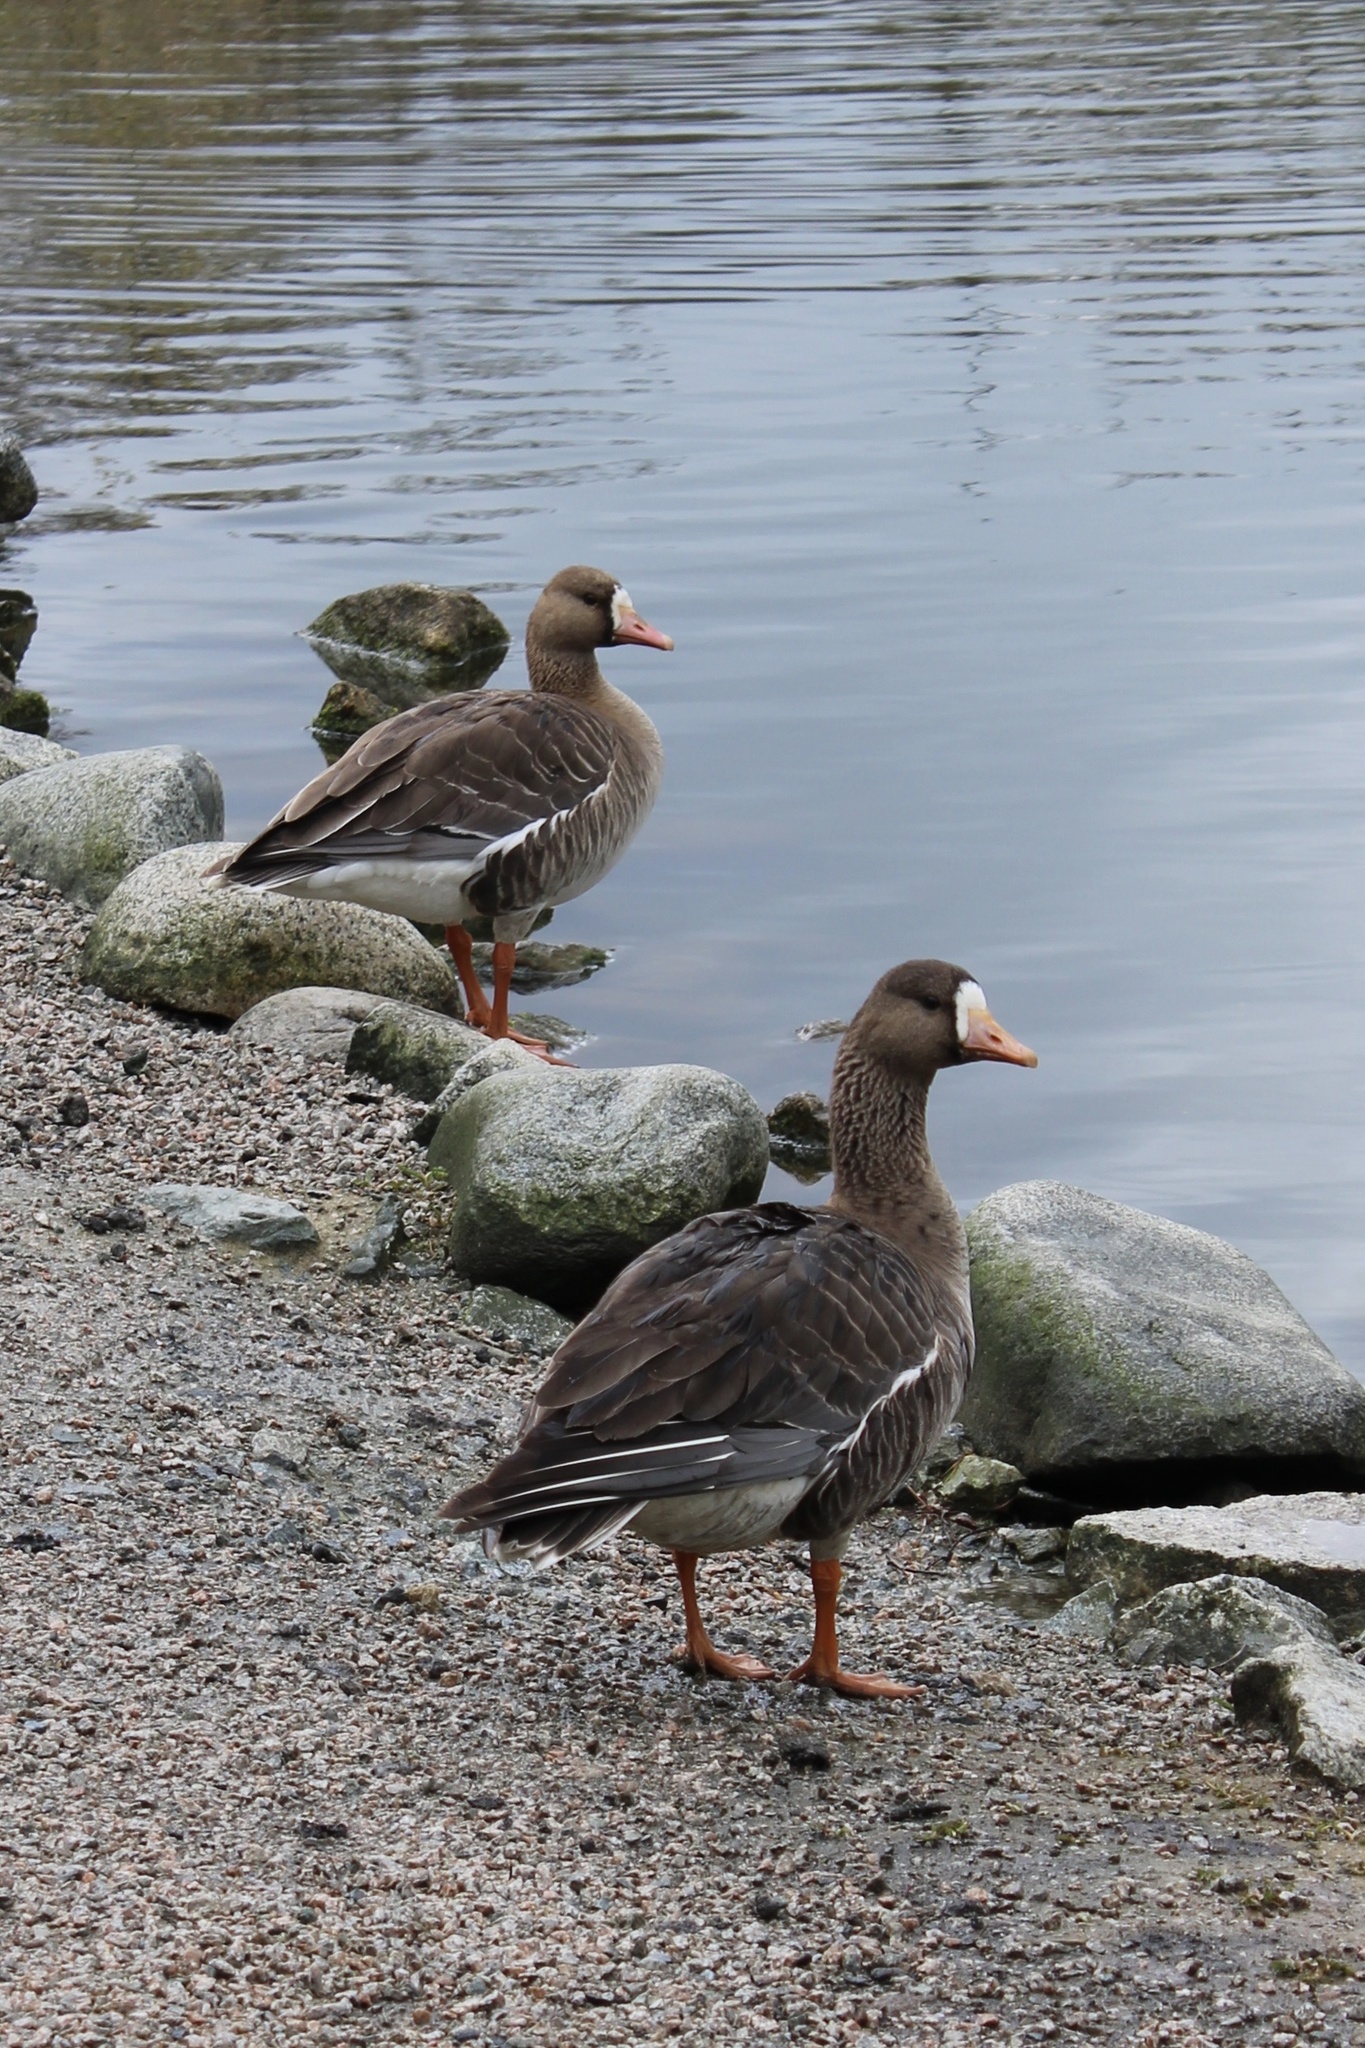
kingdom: Animalia
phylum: Chordata
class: Aves
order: Anseriformes
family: Anatidae
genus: Anser
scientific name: Anser albifrons
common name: Greater white-fronted goose
